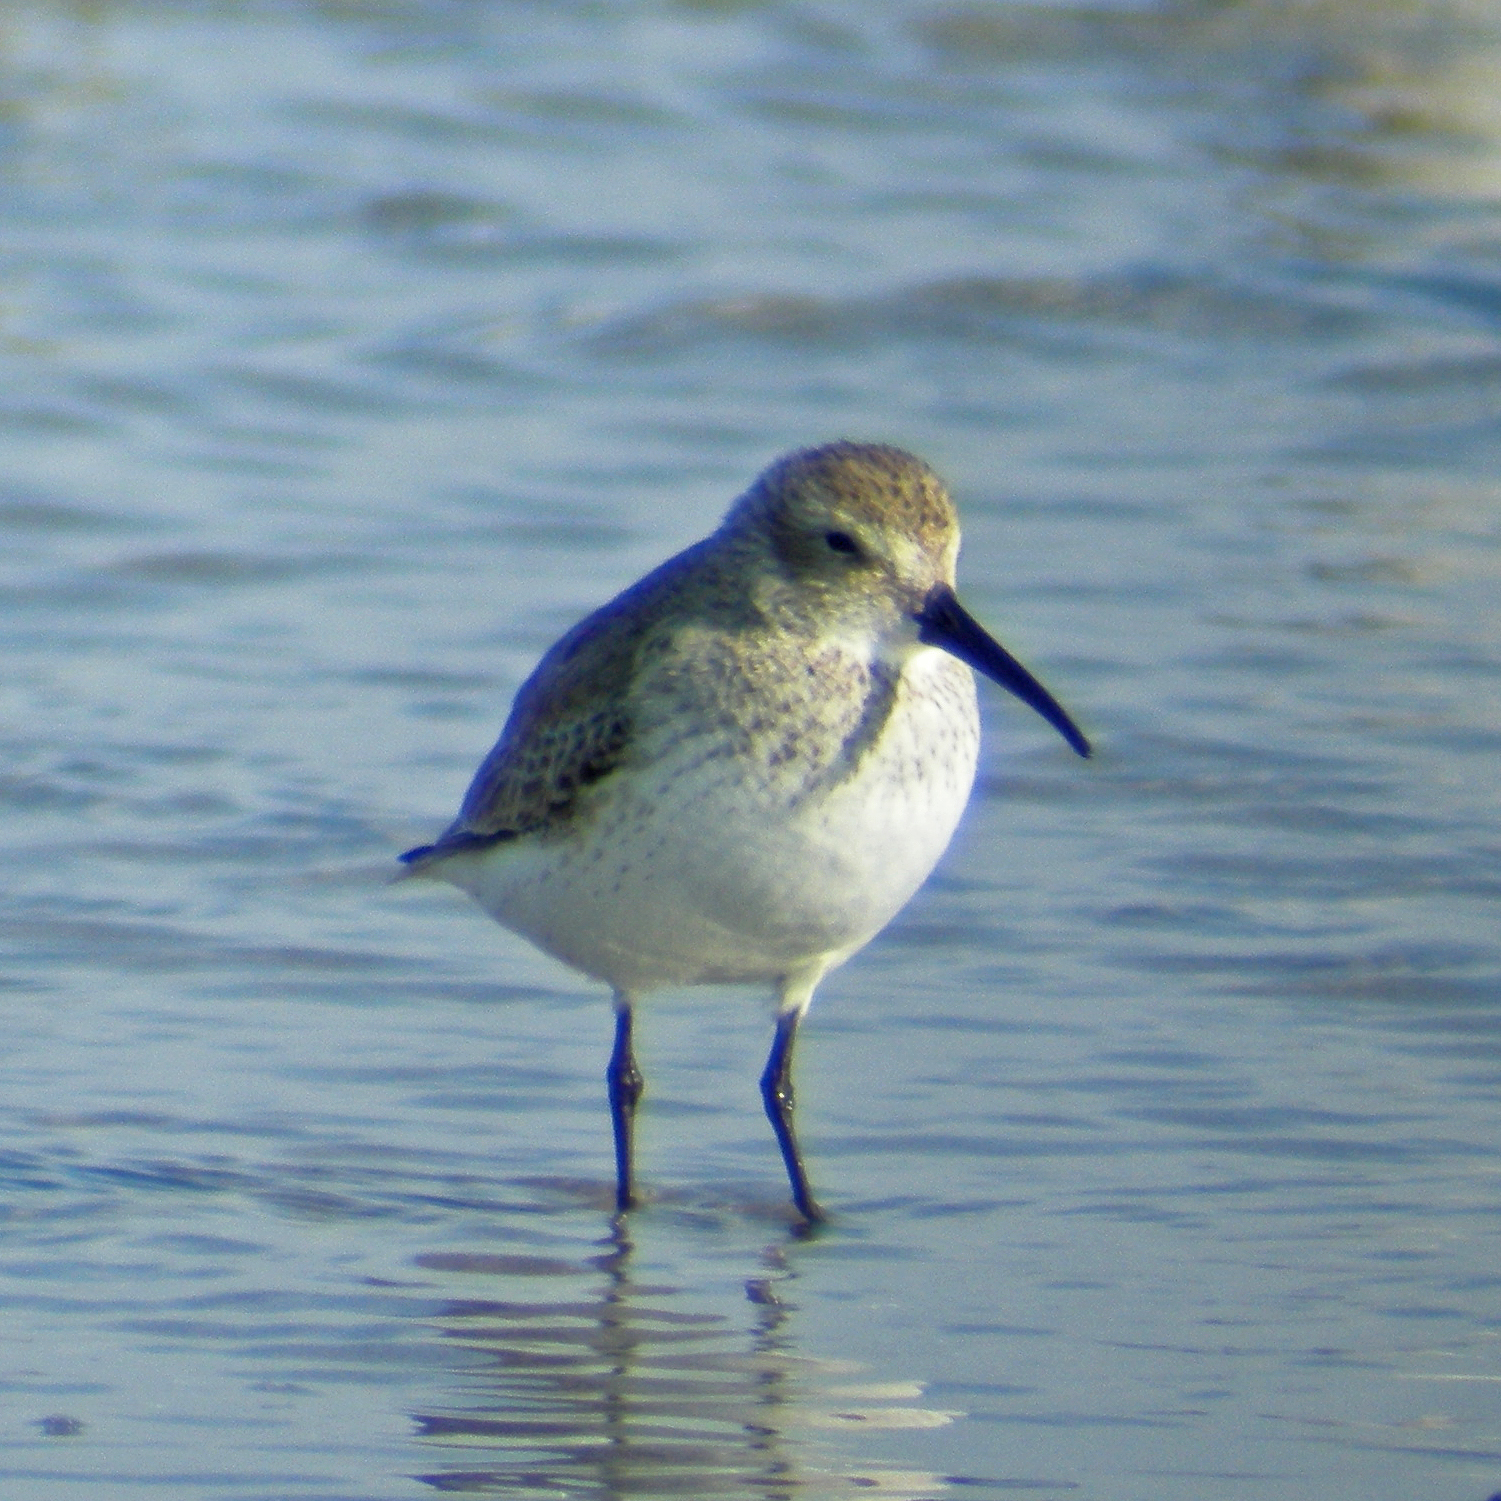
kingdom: Animalia
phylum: Chordata
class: Aves
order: Charadriiformes
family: Scolopacidae
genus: Calidris
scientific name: Calidris alpina
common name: Dunlin
